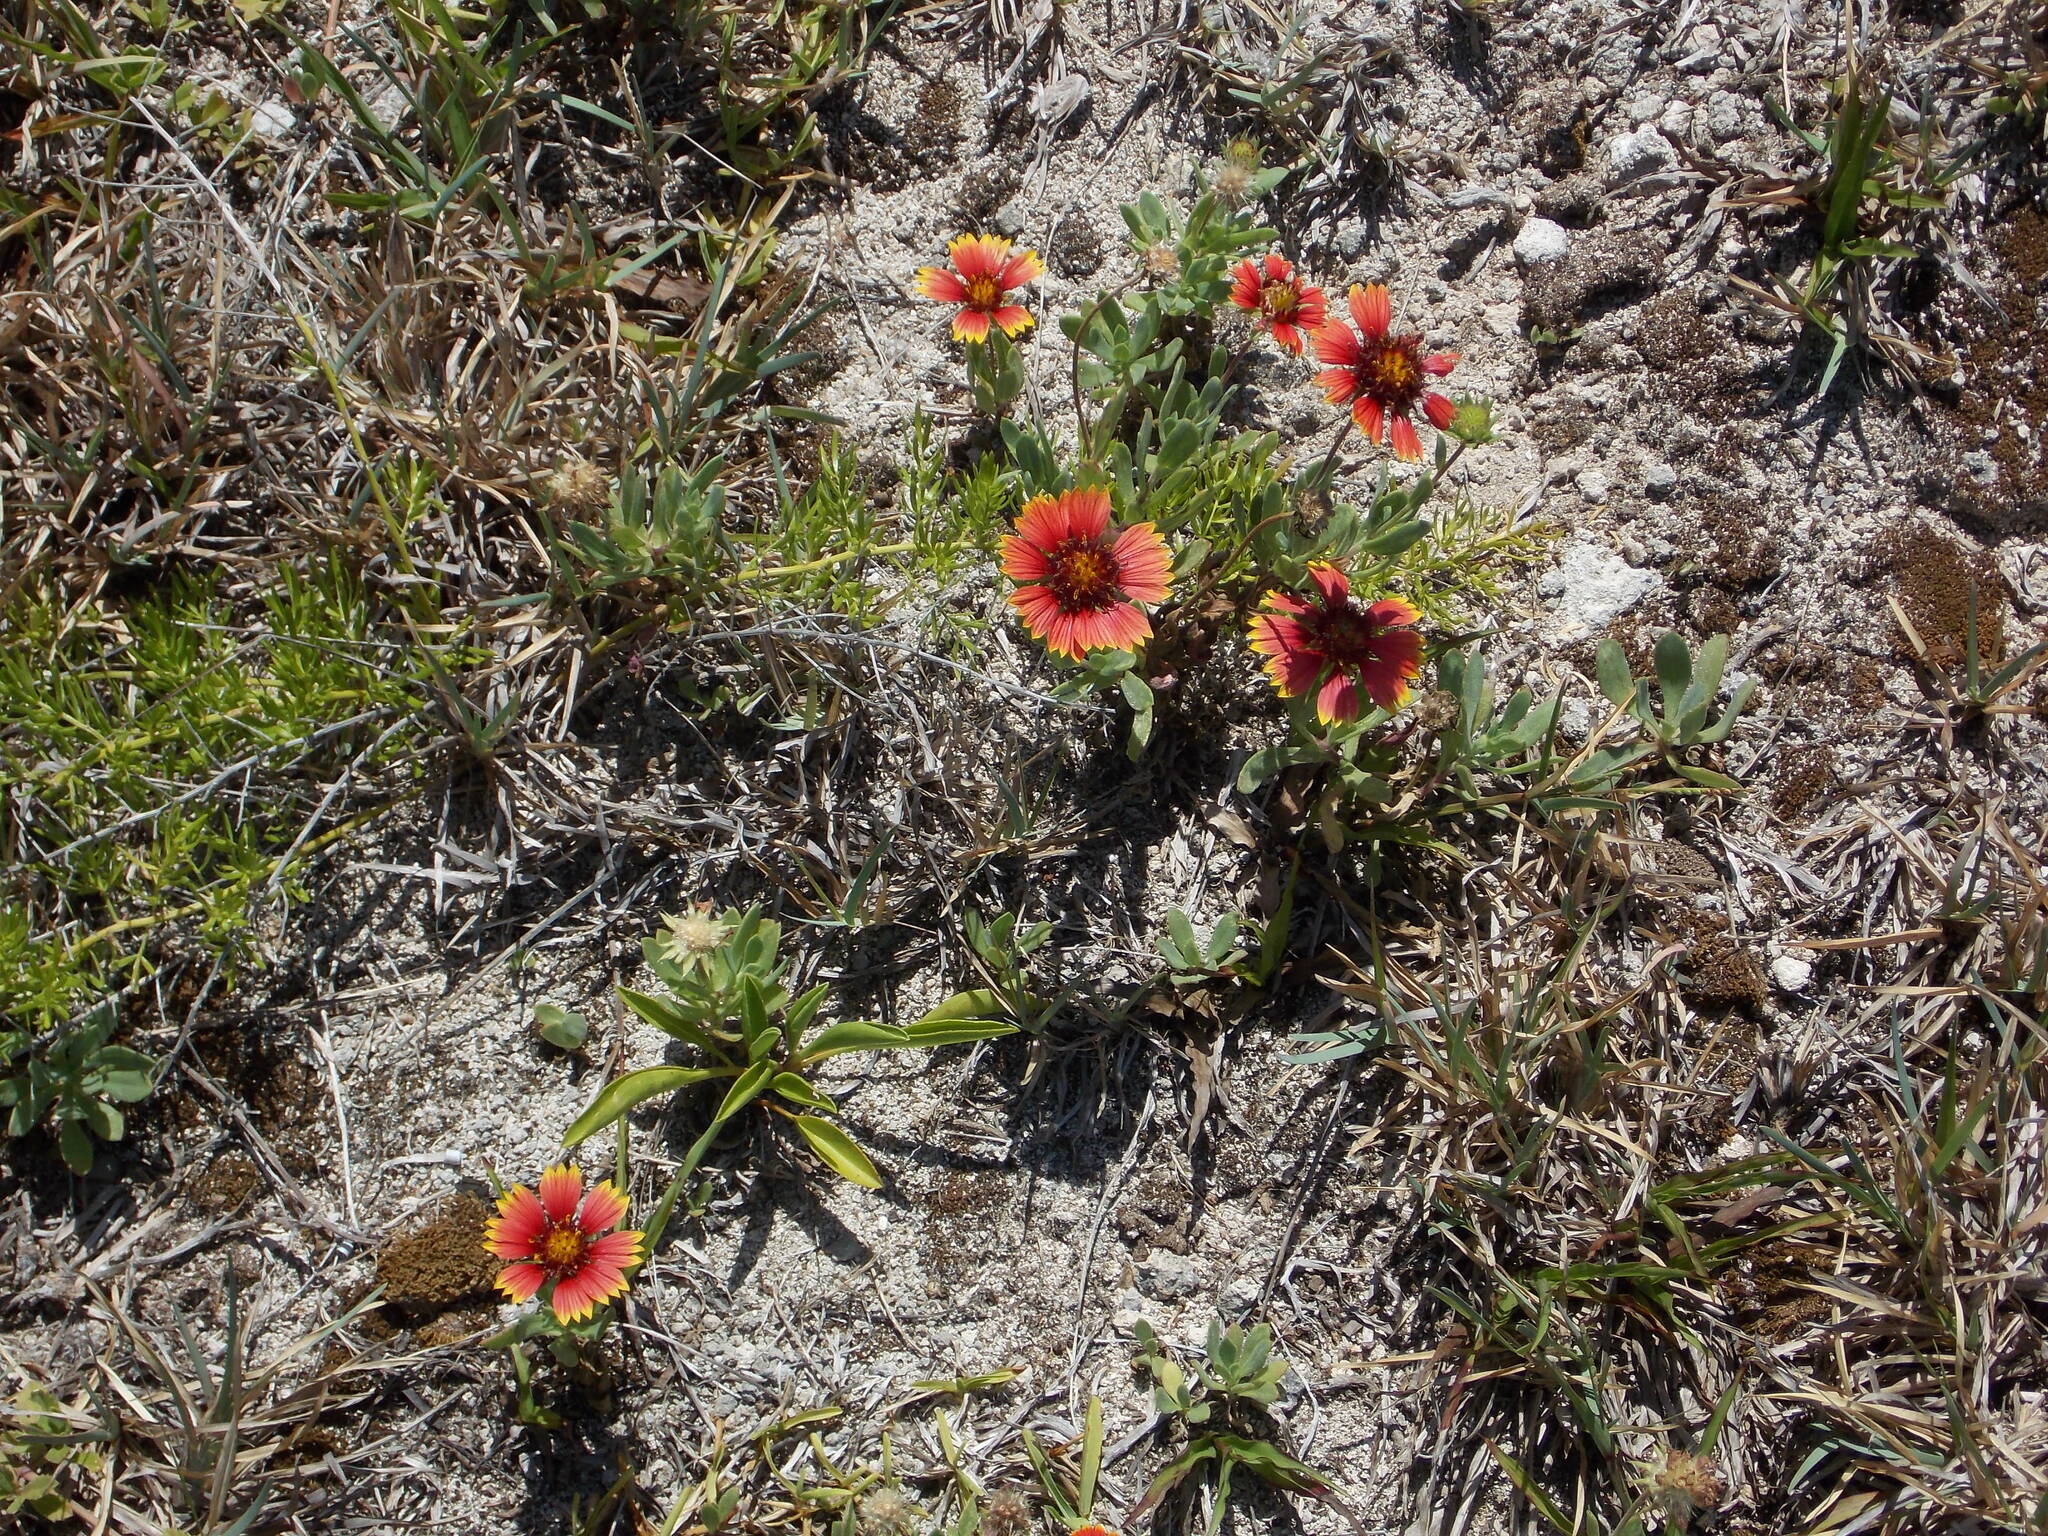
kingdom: Plantae
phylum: Tracheophyta
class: Magnoliopsida
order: Asterales
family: Asteraceae
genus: Gaillardia
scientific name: Gaillardia pulchella
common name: Firewheel
